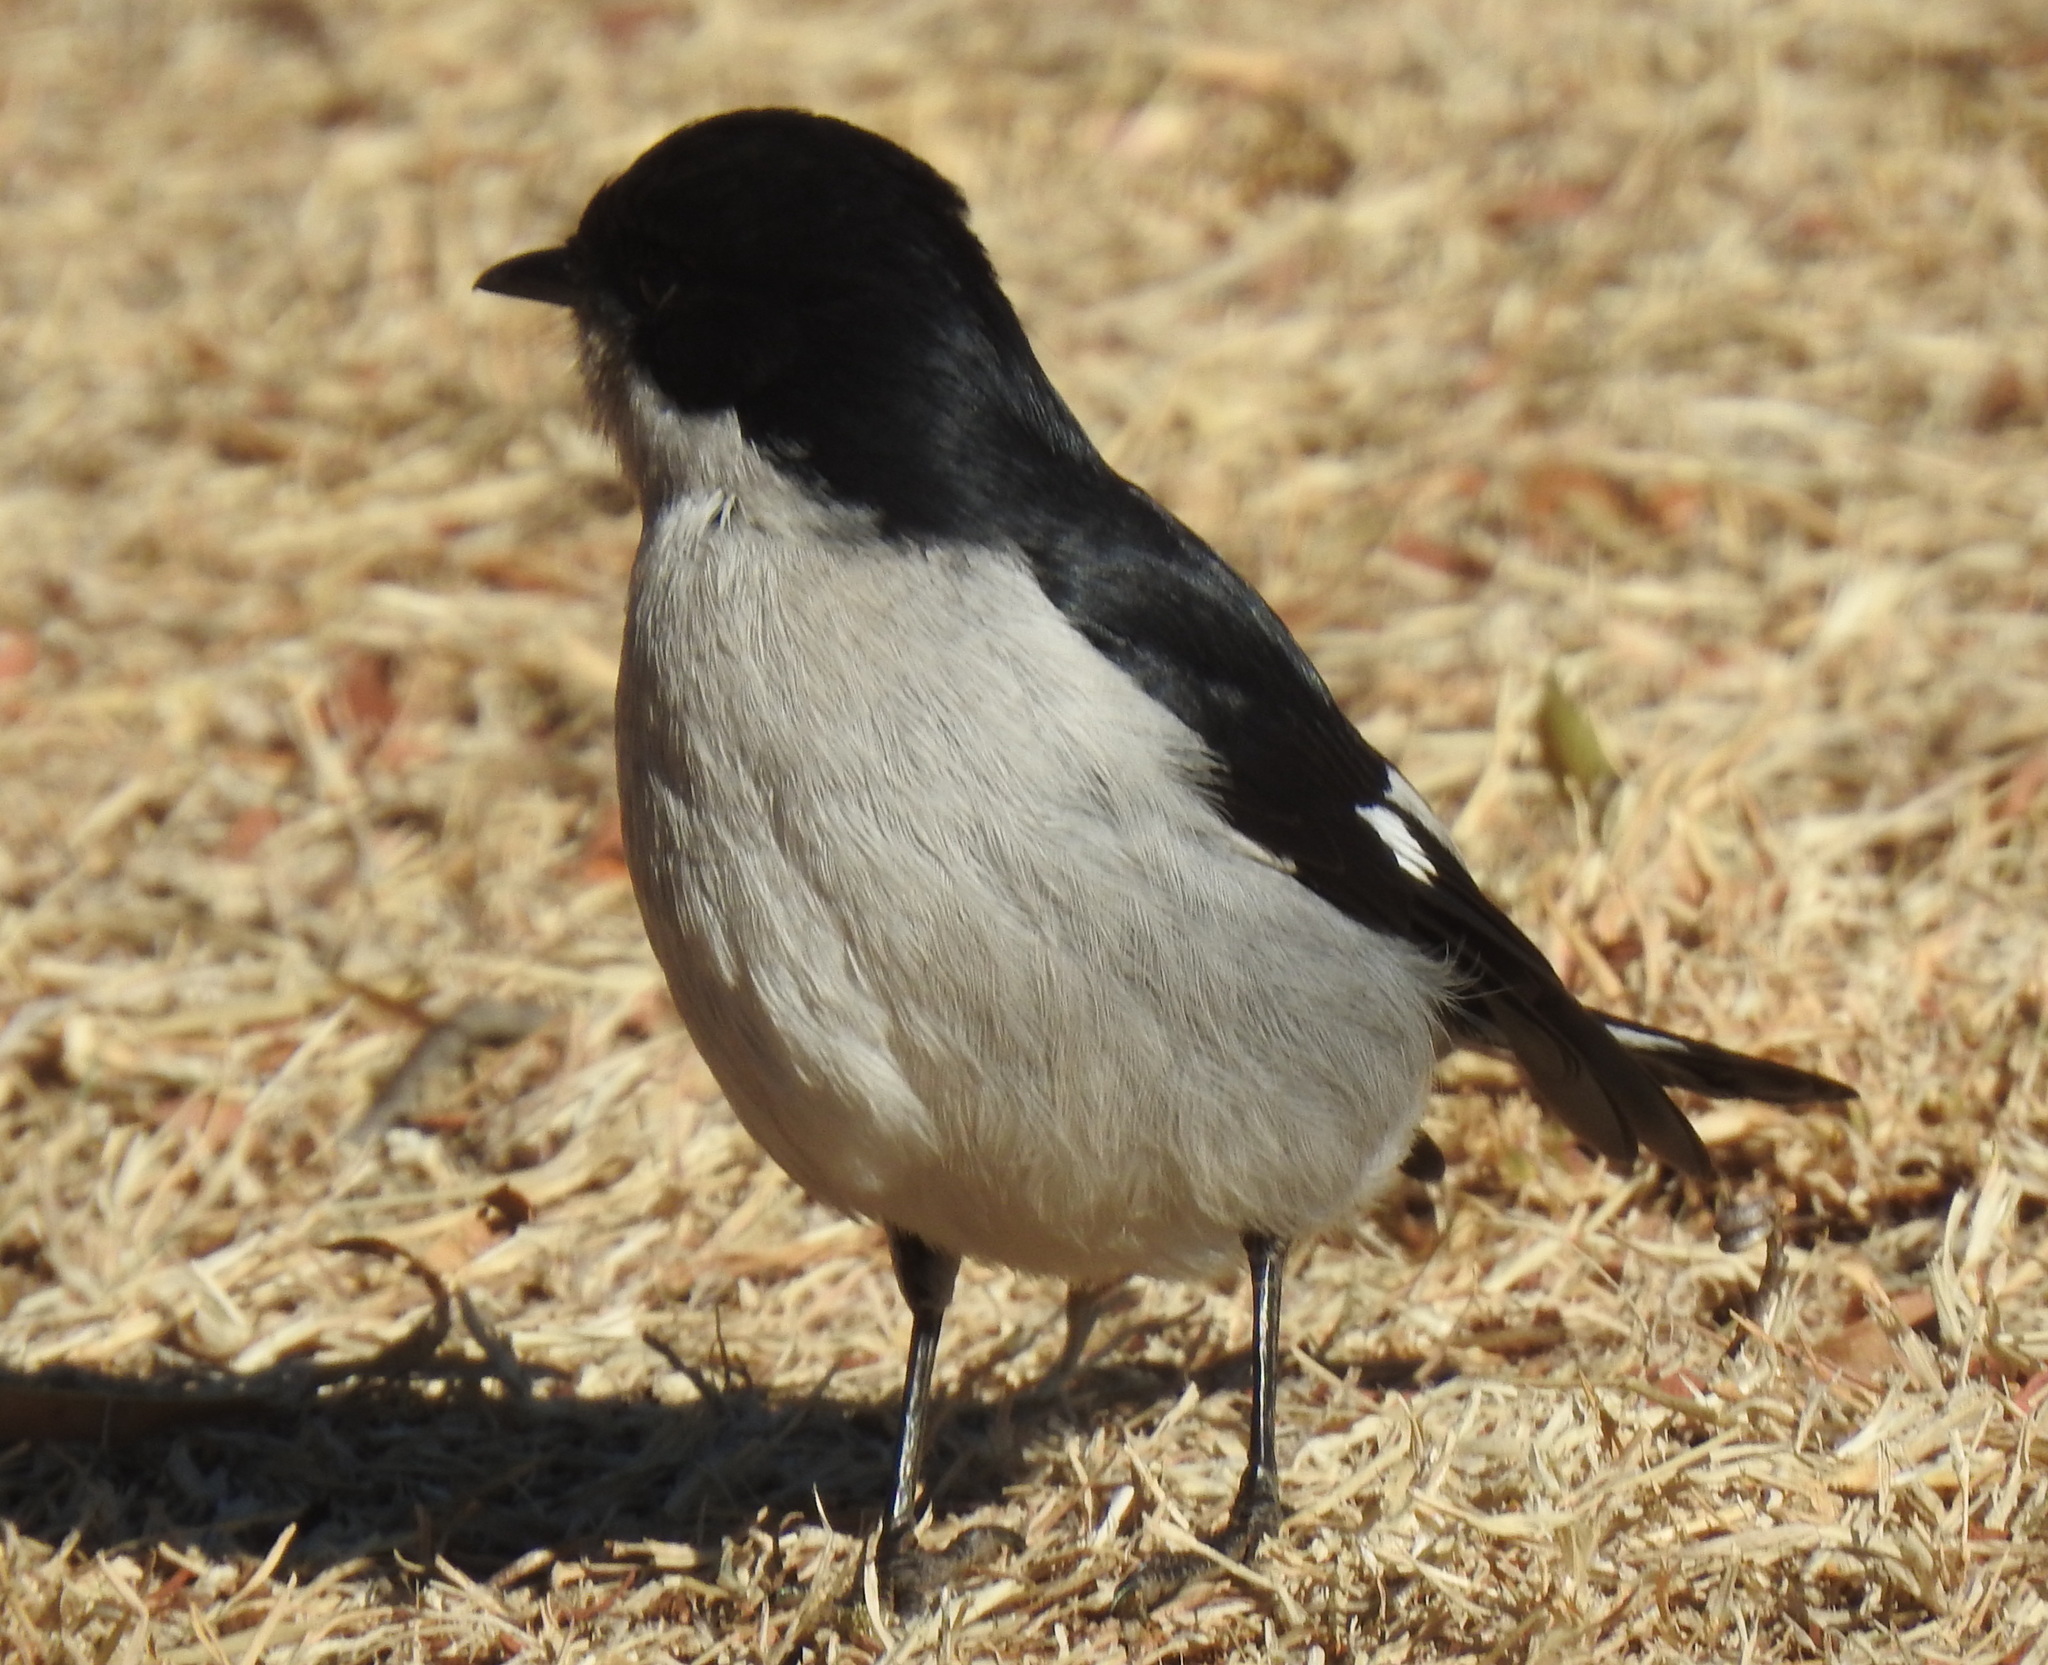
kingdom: Animalia
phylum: Chordata
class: Aves
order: Passeriformes
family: Muscicapidae
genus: Sigelus
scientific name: Sigelus silens
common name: Fiscal flycatcher
